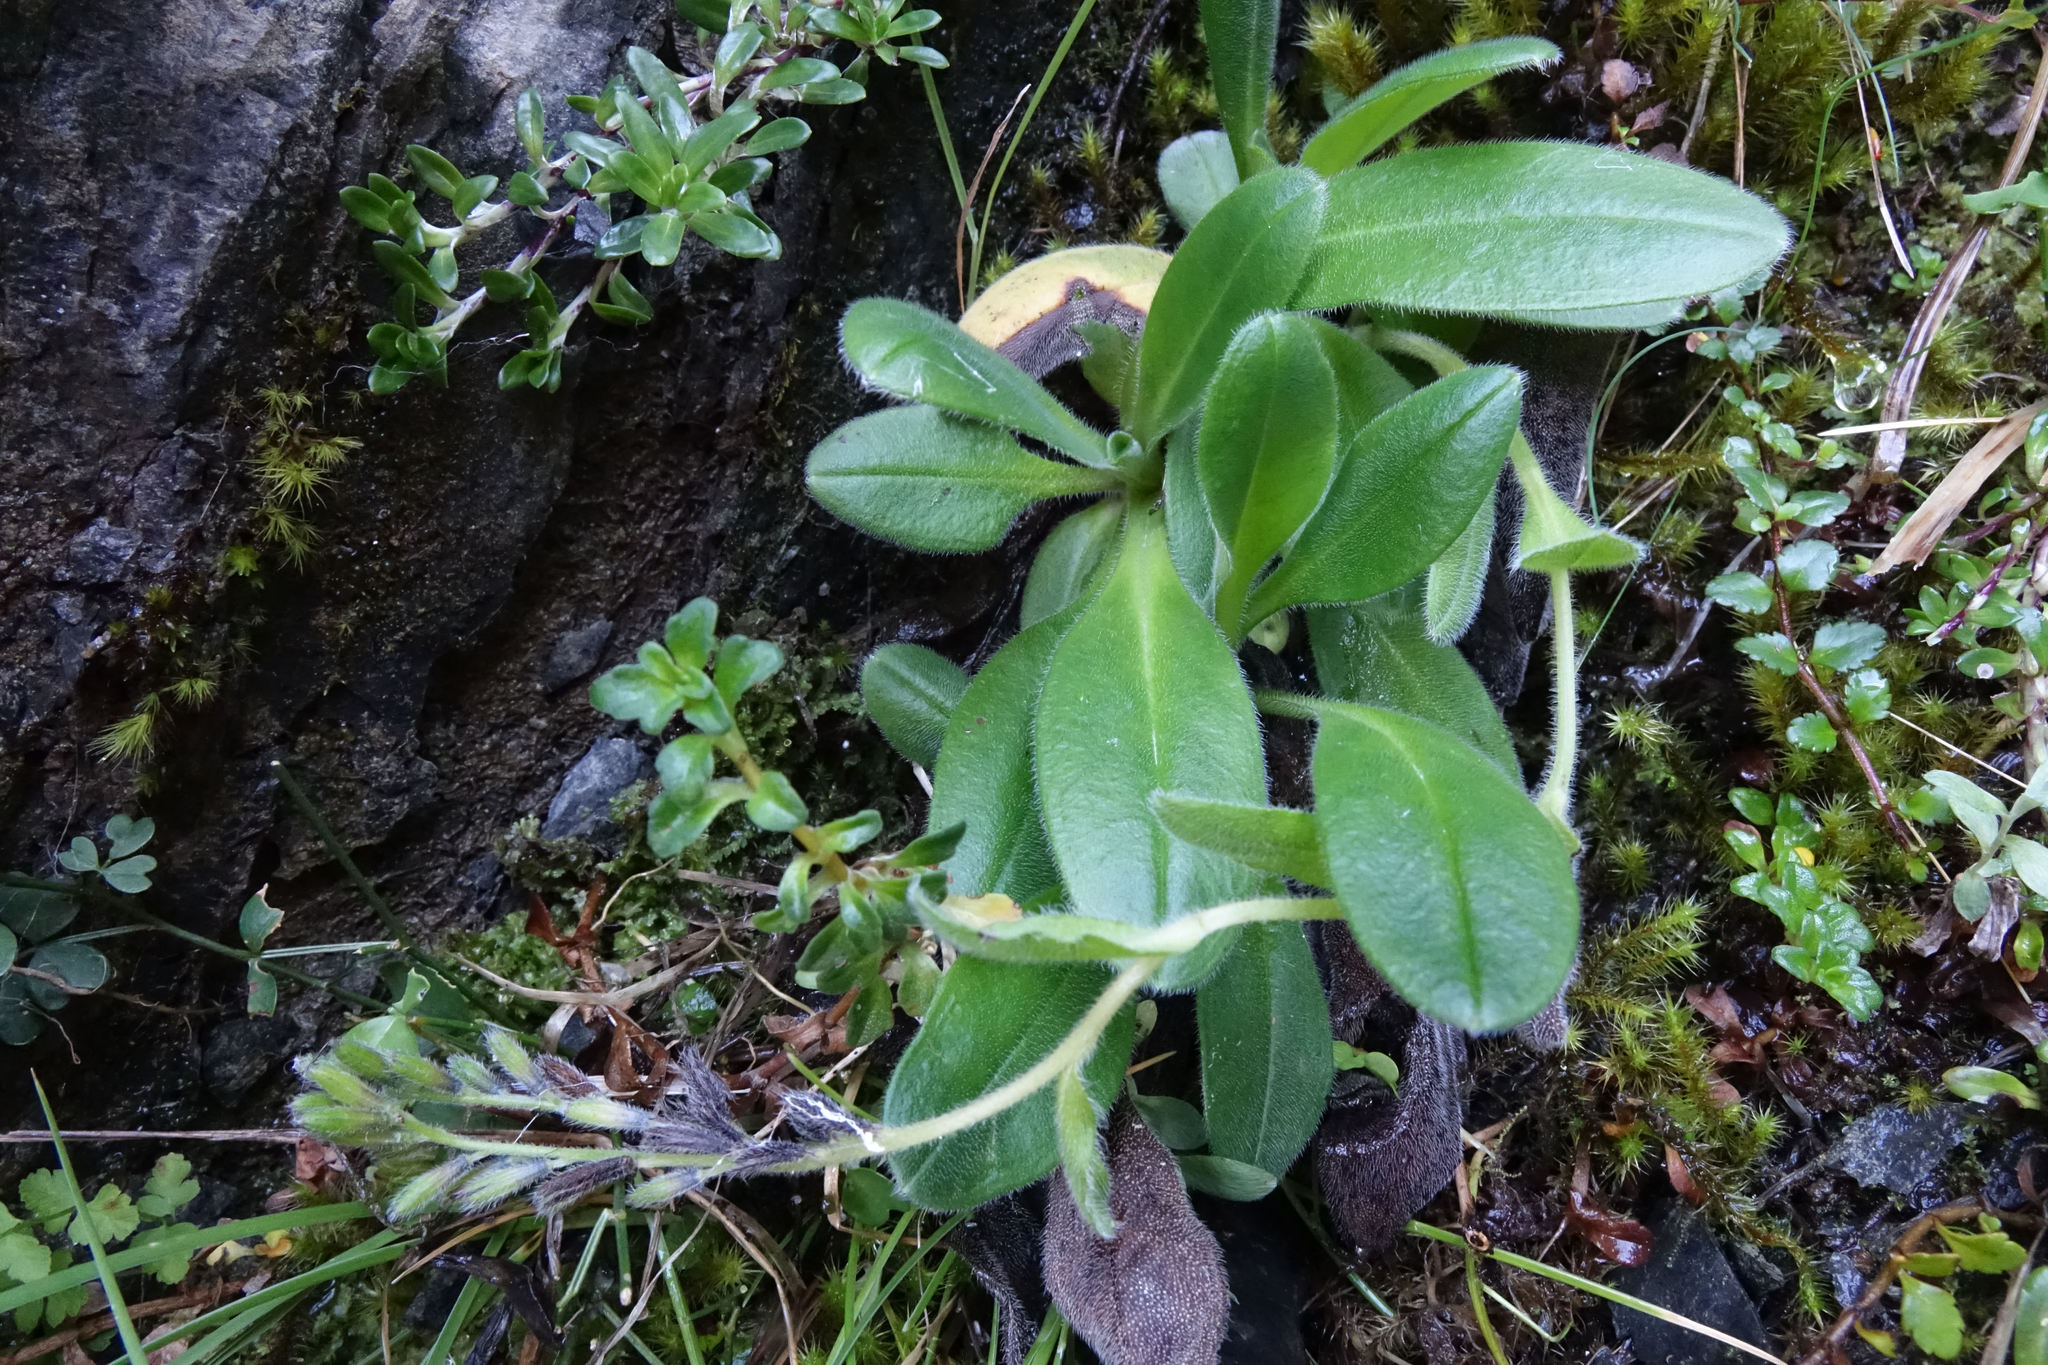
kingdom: Plantae
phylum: Tracheophyta
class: Magnoliopsida
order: Boraginales
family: Boraginaceae
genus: Myosotis
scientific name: Myosotis suavis
